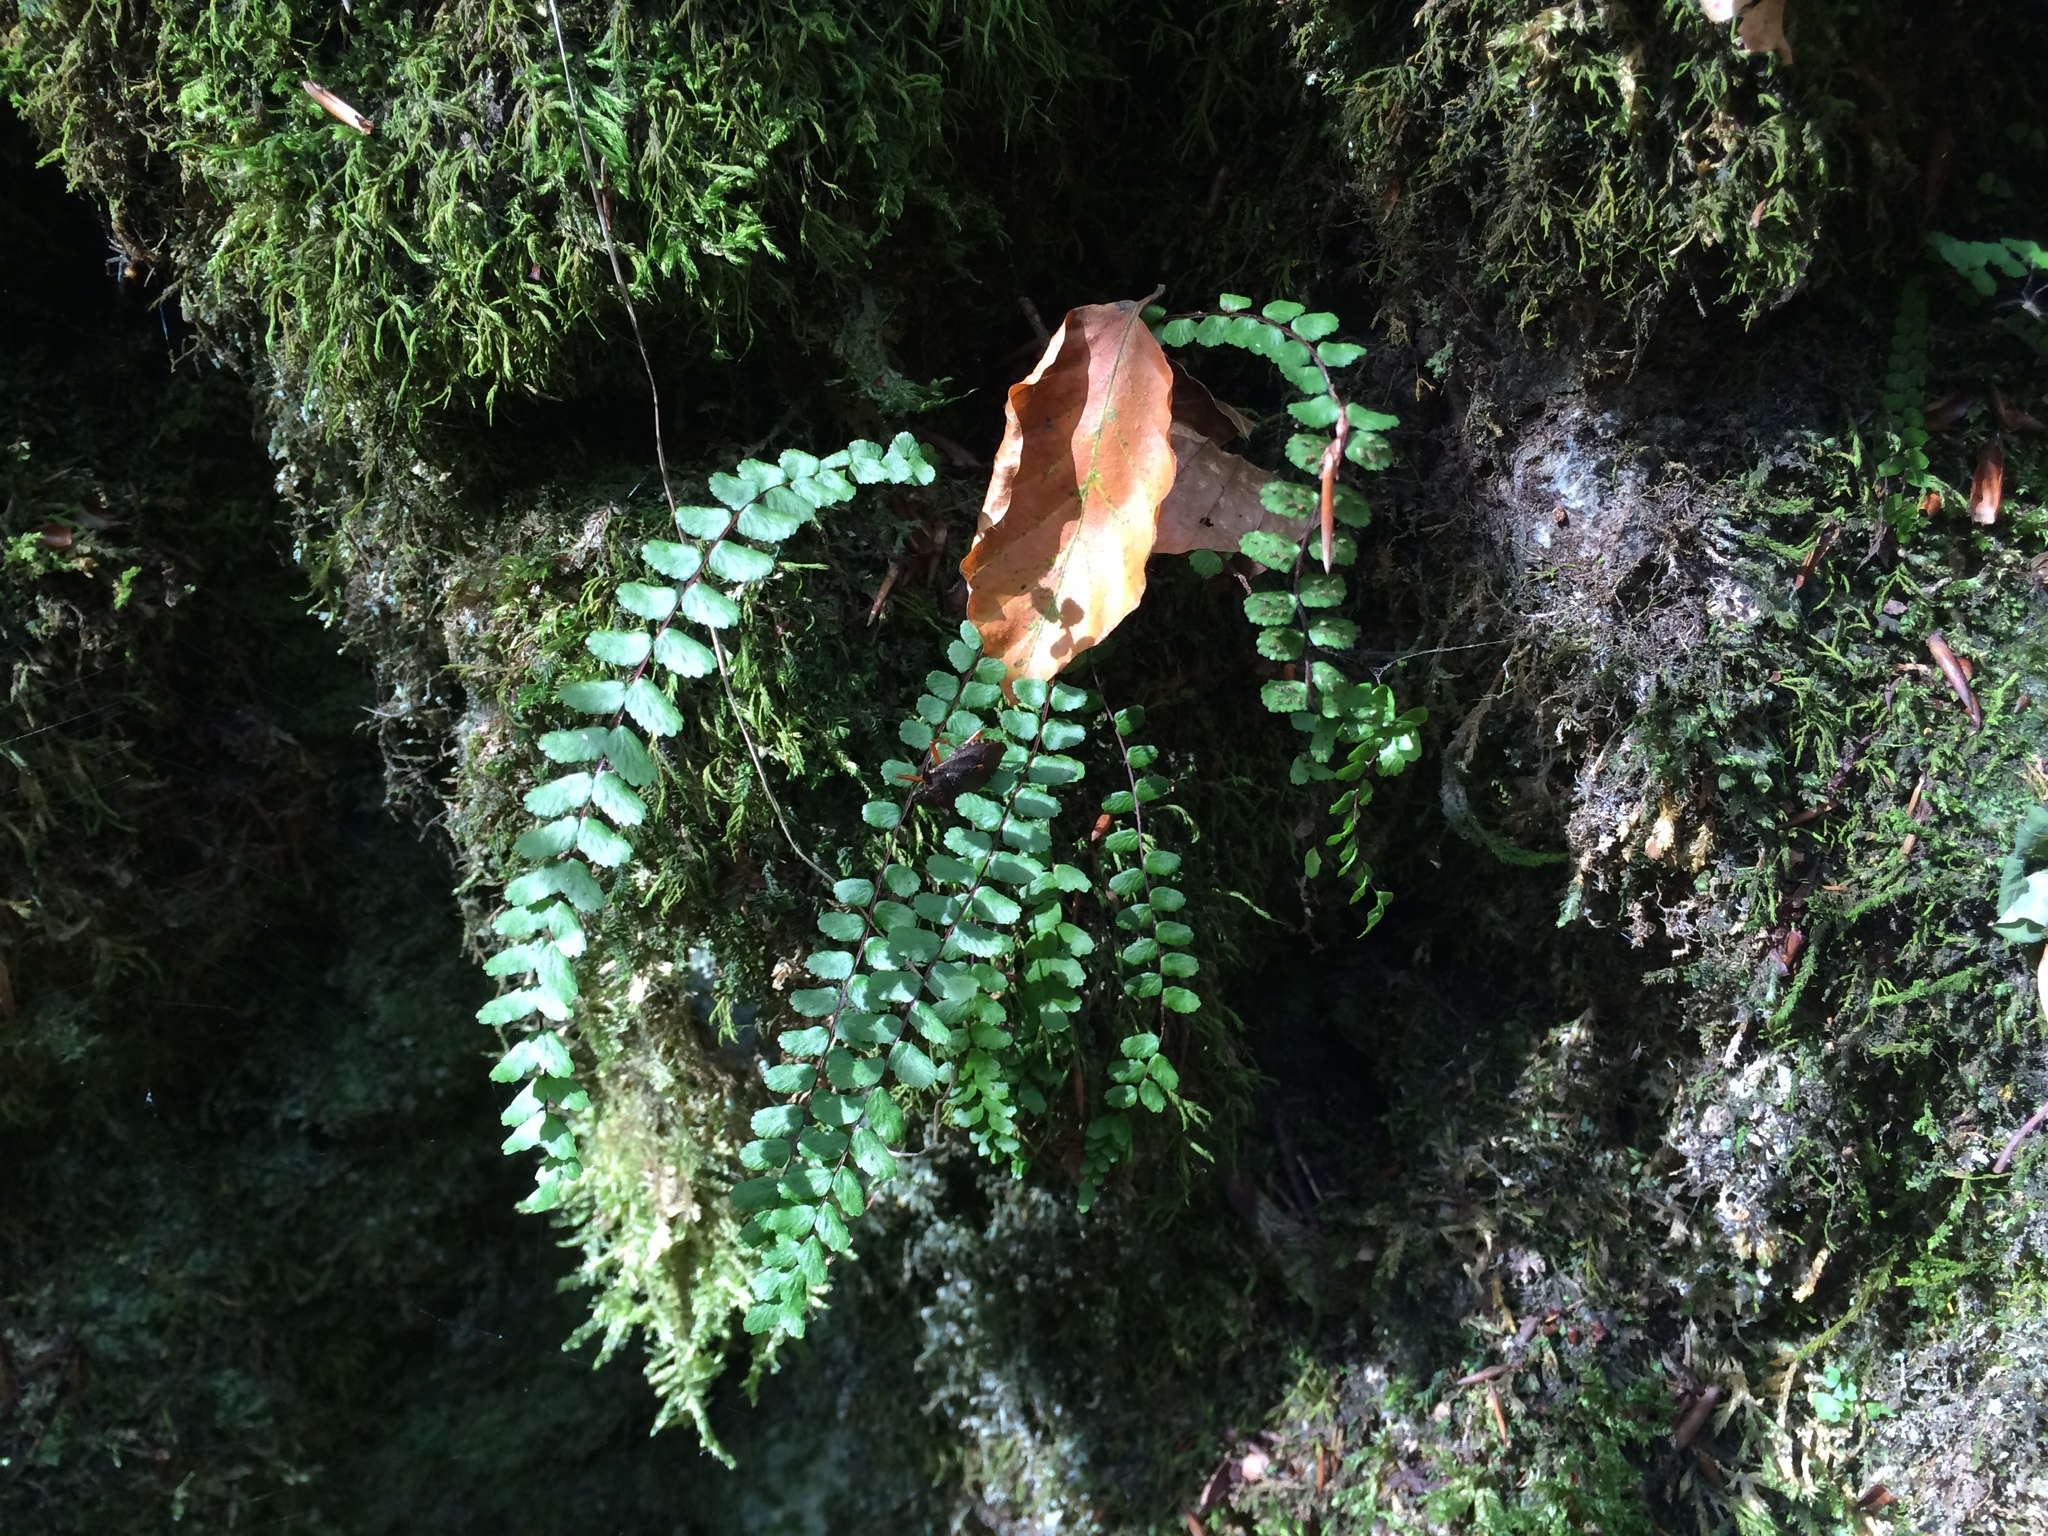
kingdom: Plantae
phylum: Tracheophyta
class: Polypodiopsida
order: Polypodiales
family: Aspleniaceae
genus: Asplenium
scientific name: Asplenium trichomanes
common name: Maidenhair spleenwort
